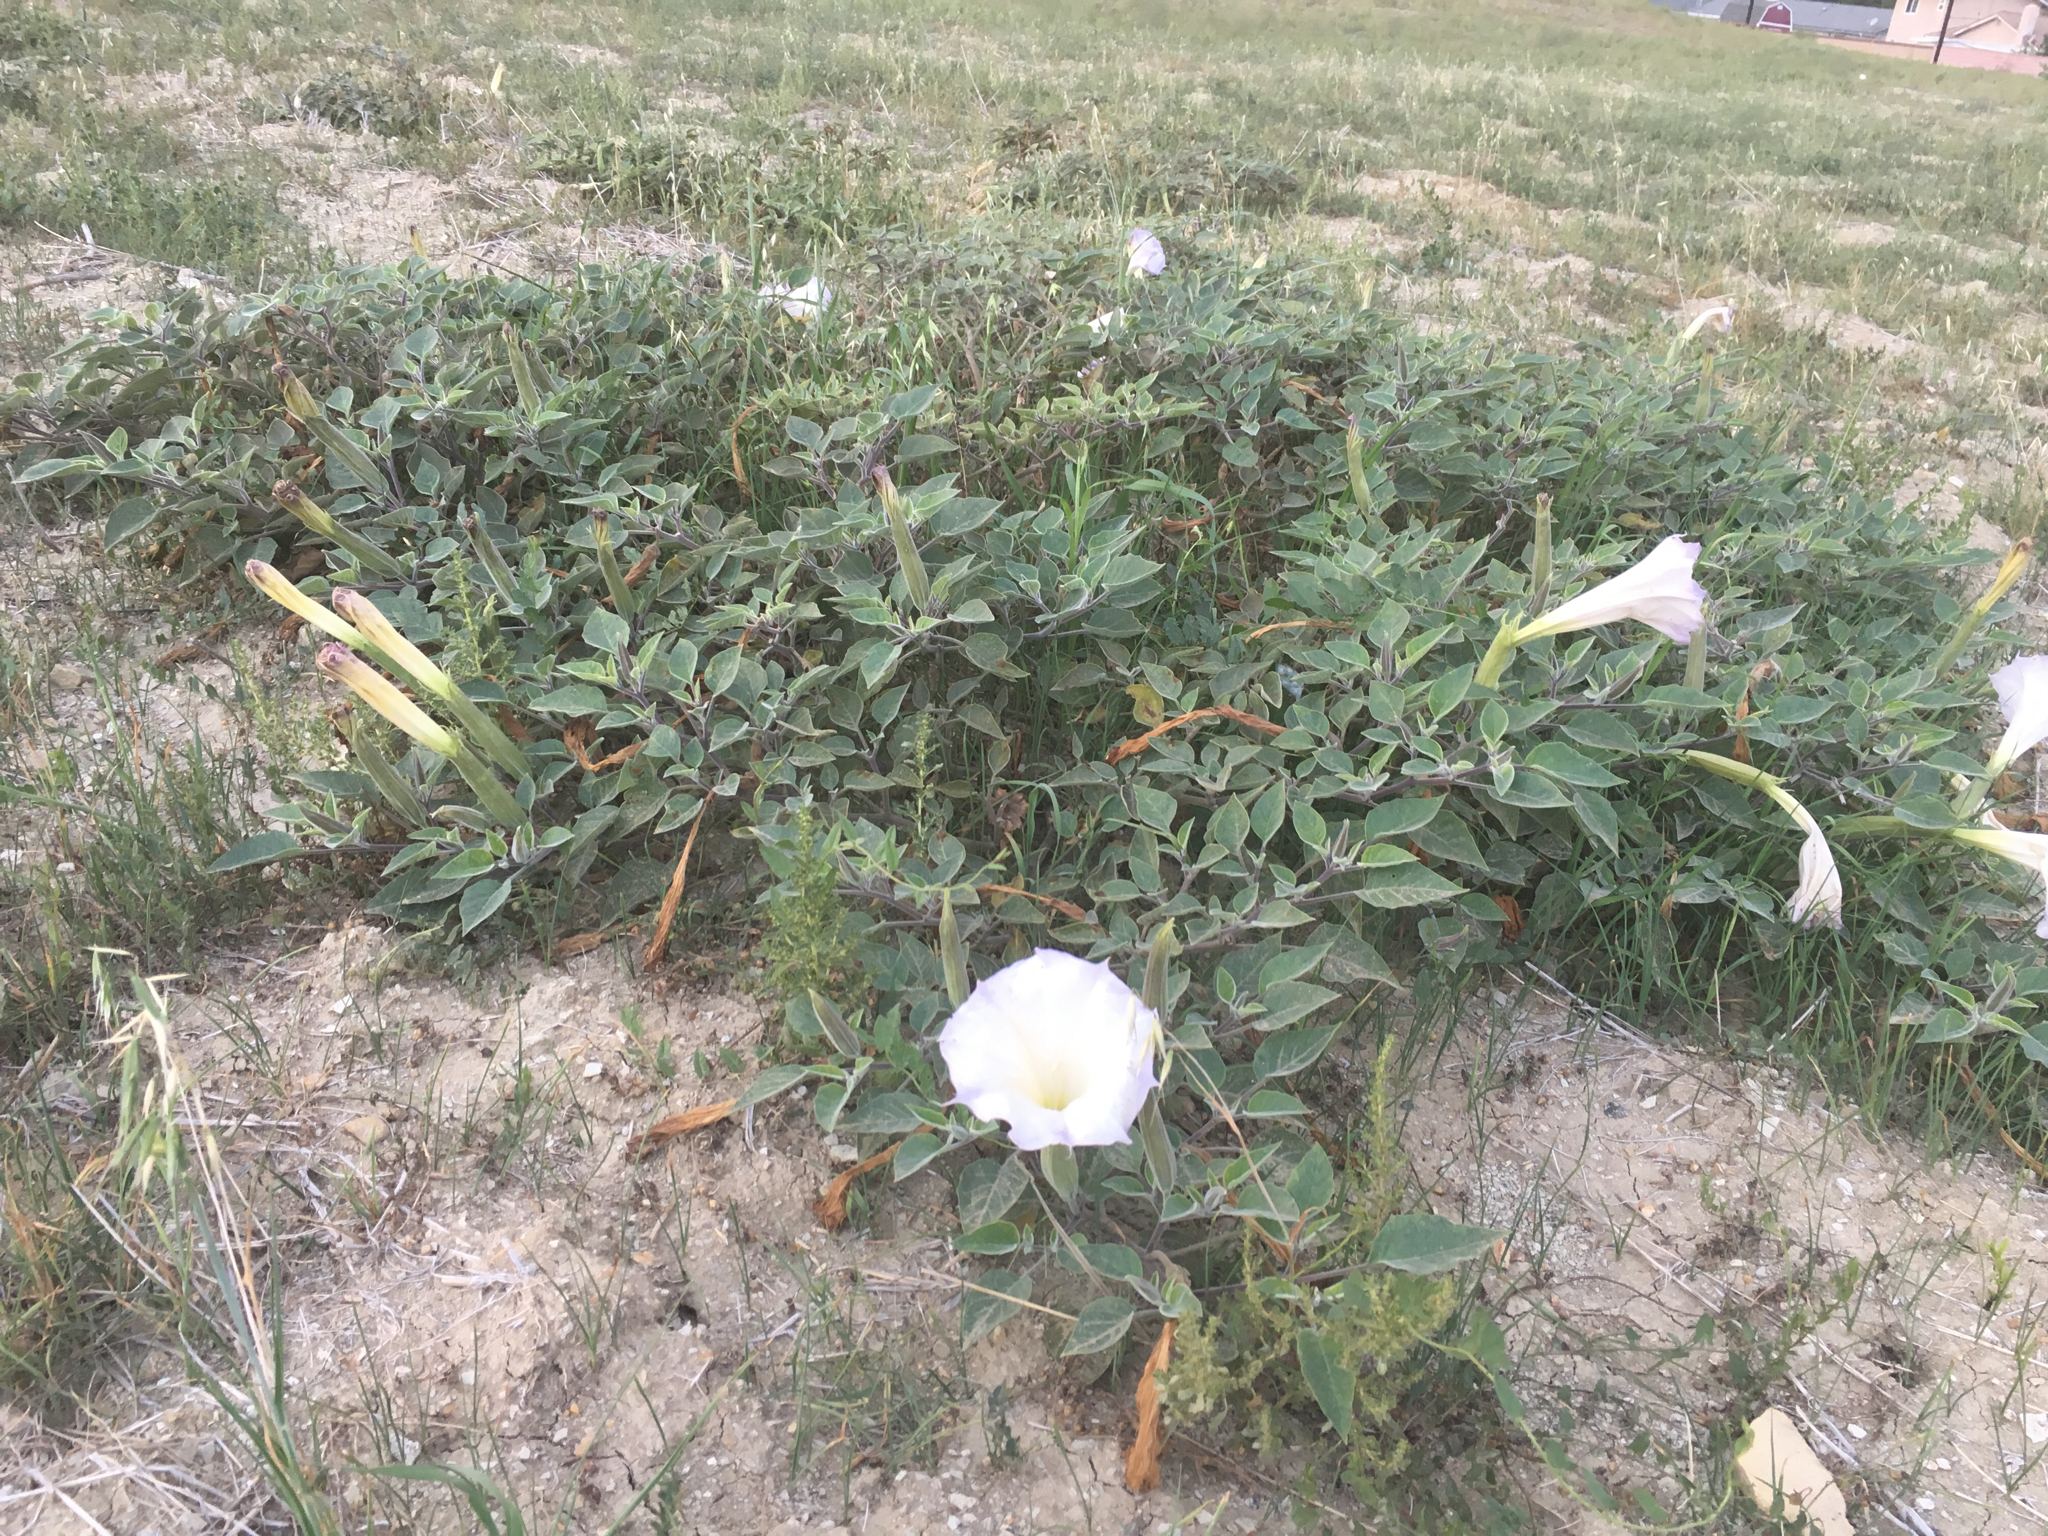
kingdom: Plantae
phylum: Tracheophyta
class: Magnoliopsida
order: Solanales
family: Solanaceae
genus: Datura
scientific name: Datura wrightii
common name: Sacred thorn-apple
